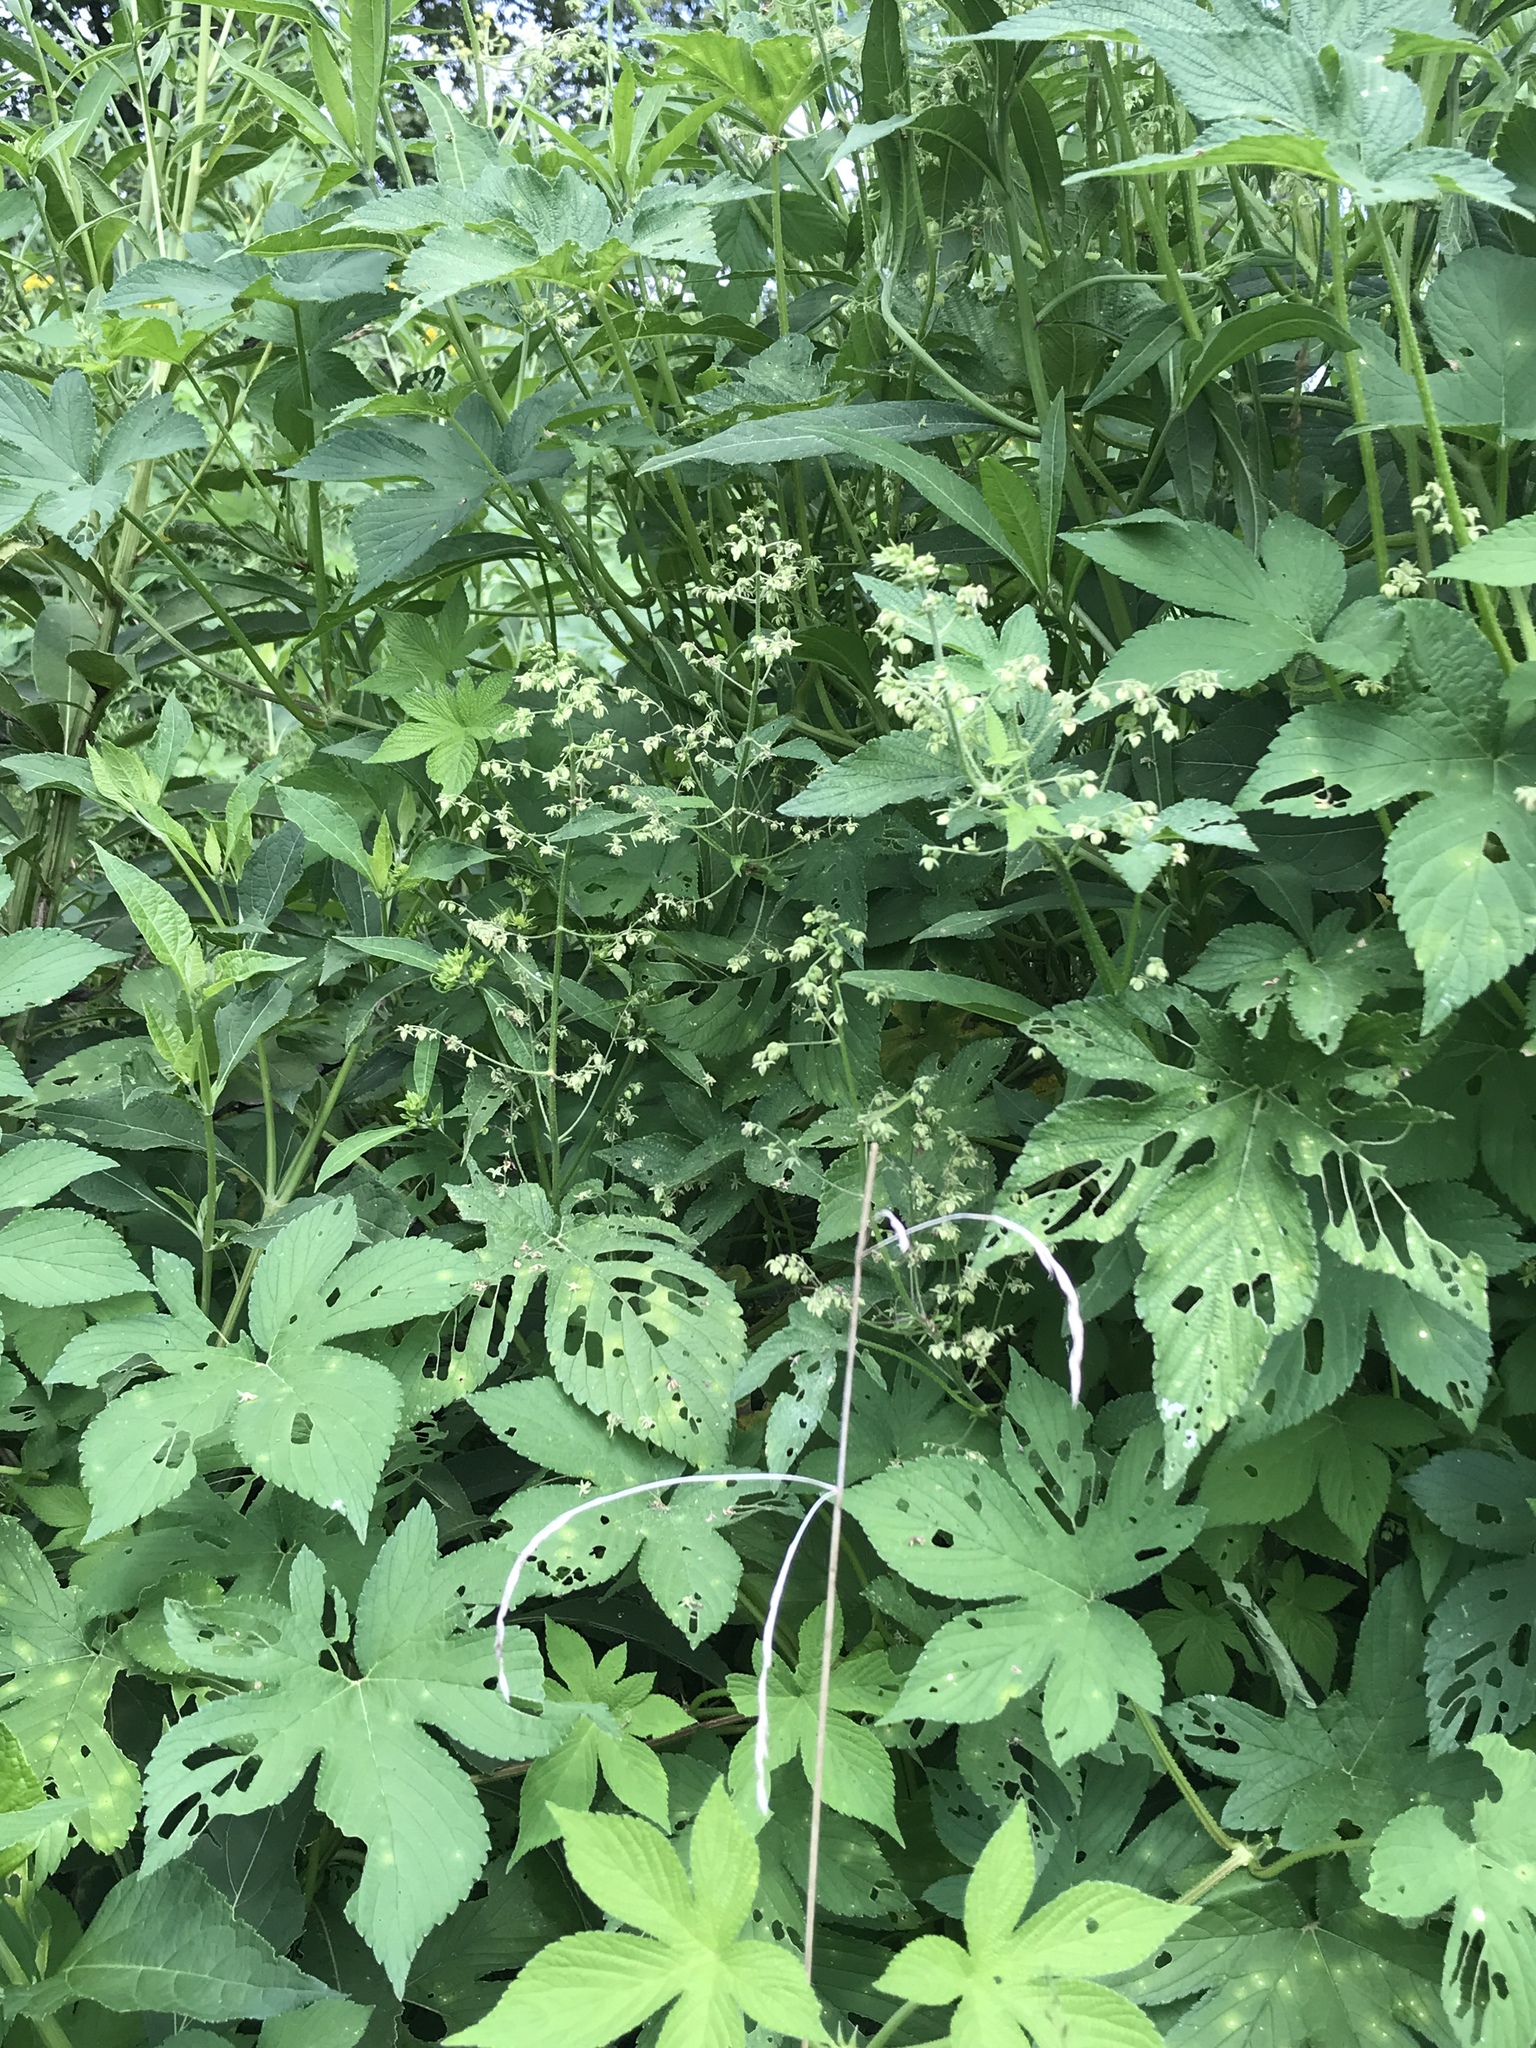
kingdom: Plantae
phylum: Tracheophyta
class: Magnoliopsida
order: Rosales
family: Cannabaceae
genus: Humulus
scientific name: Humulus scandens
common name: Japanese hop
